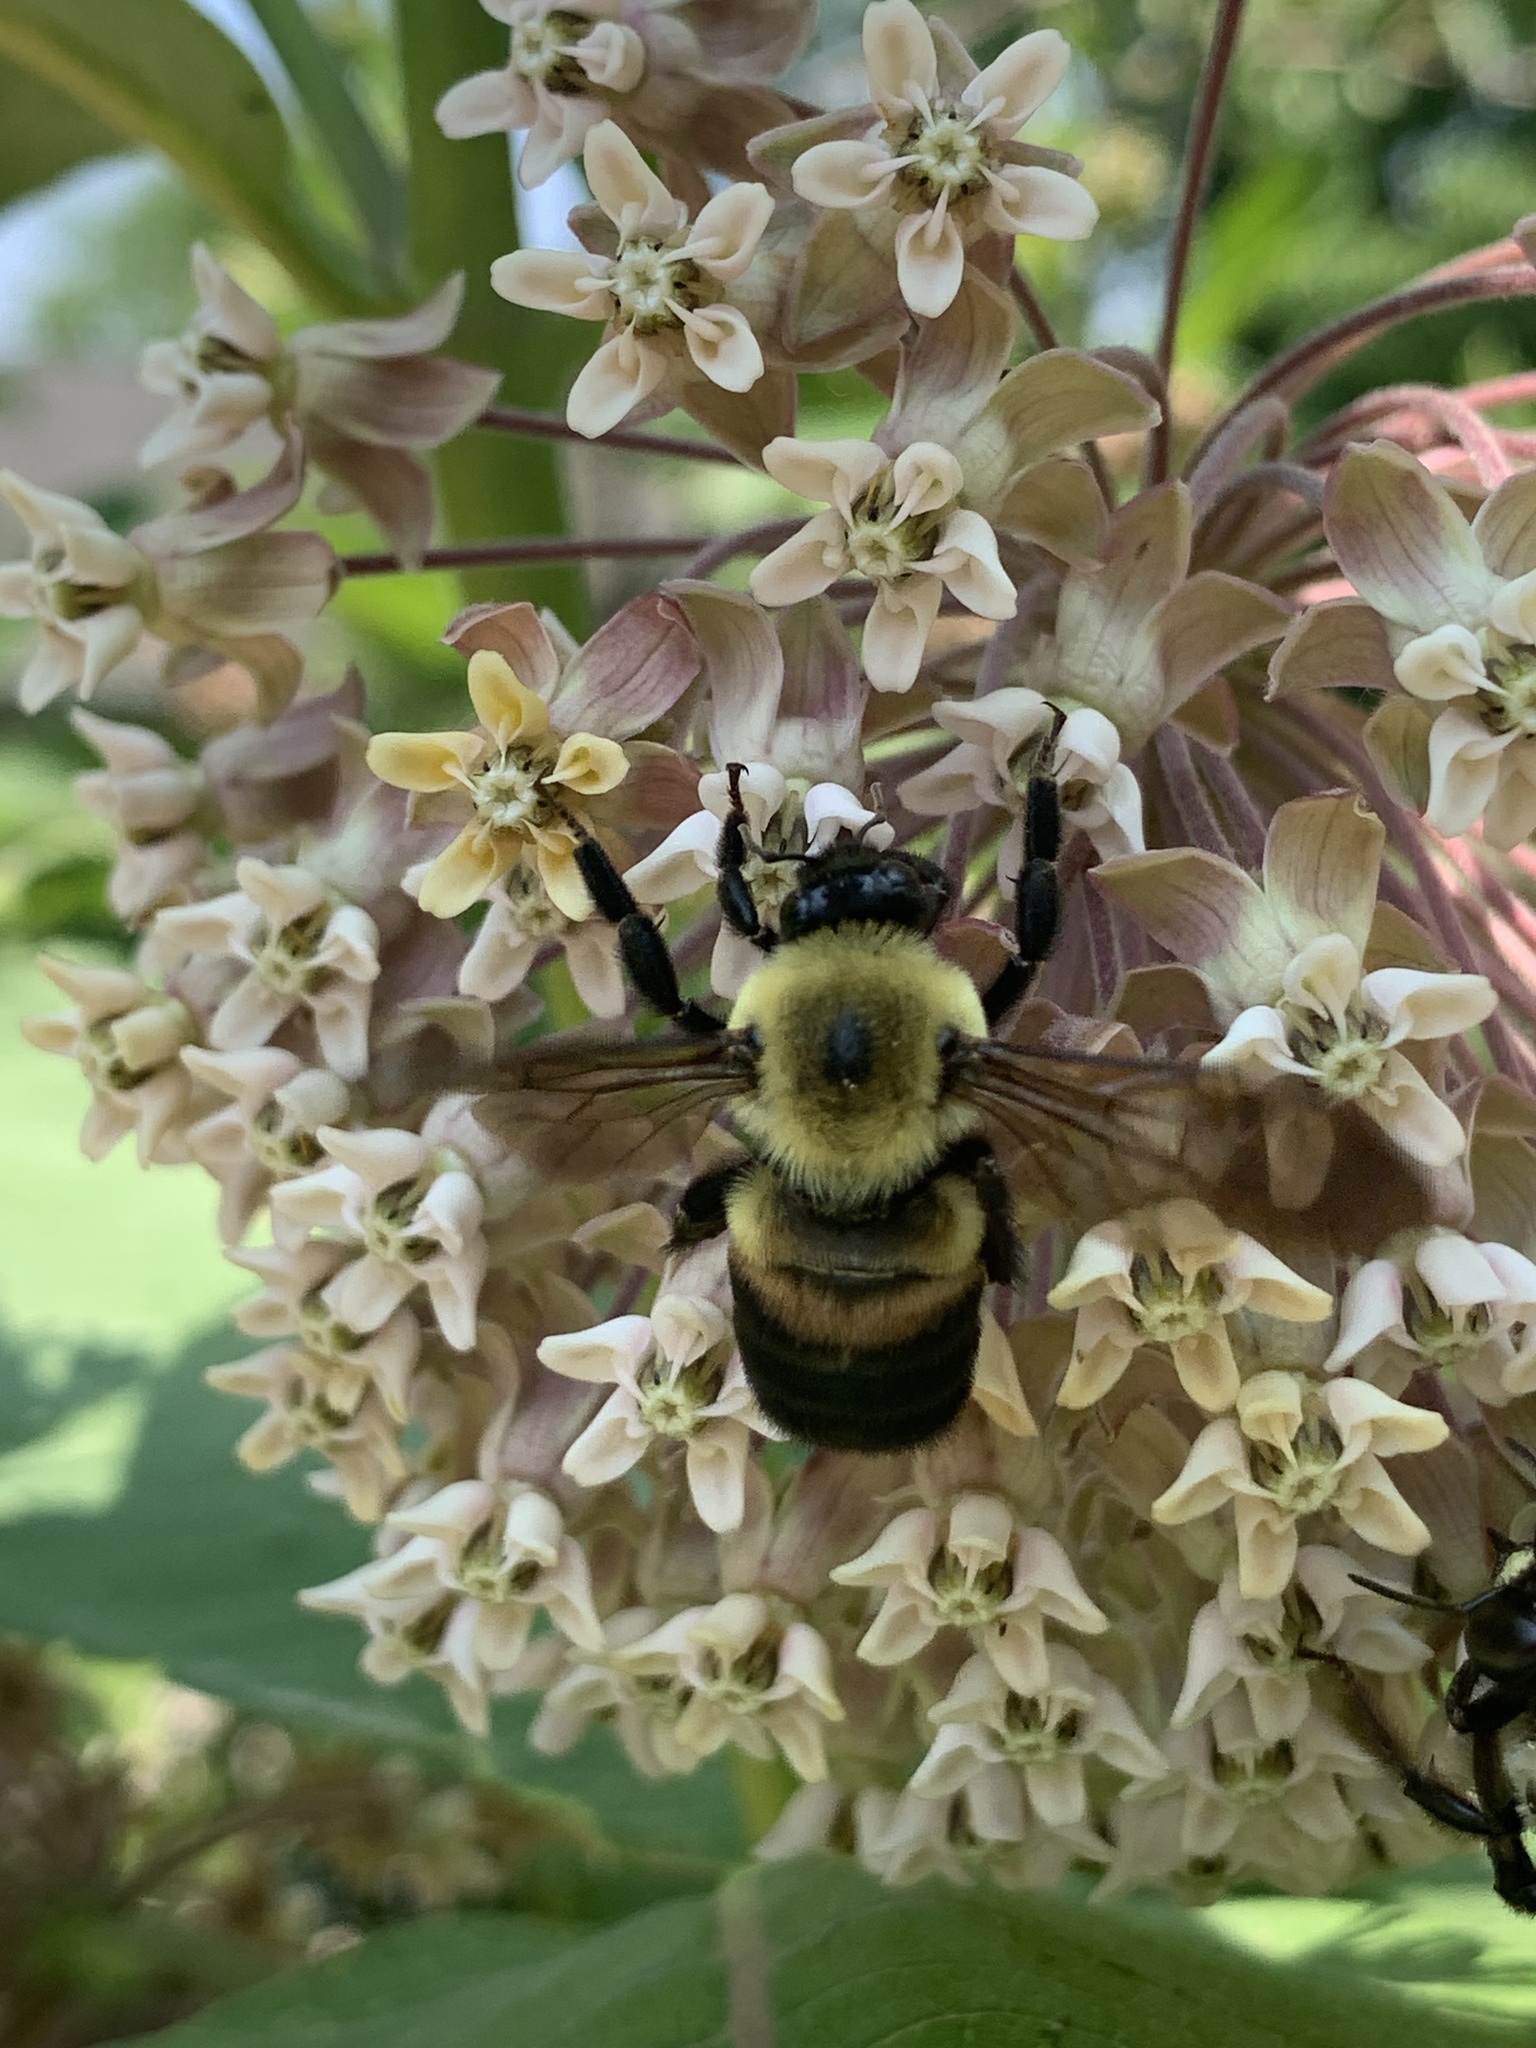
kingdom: Animalia
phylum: Arthropoda
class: Insecta
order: Hymenoptera
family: Apidae
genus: Bombus
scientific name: Bombus griseocollis
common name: Brown-belted bumble bee
